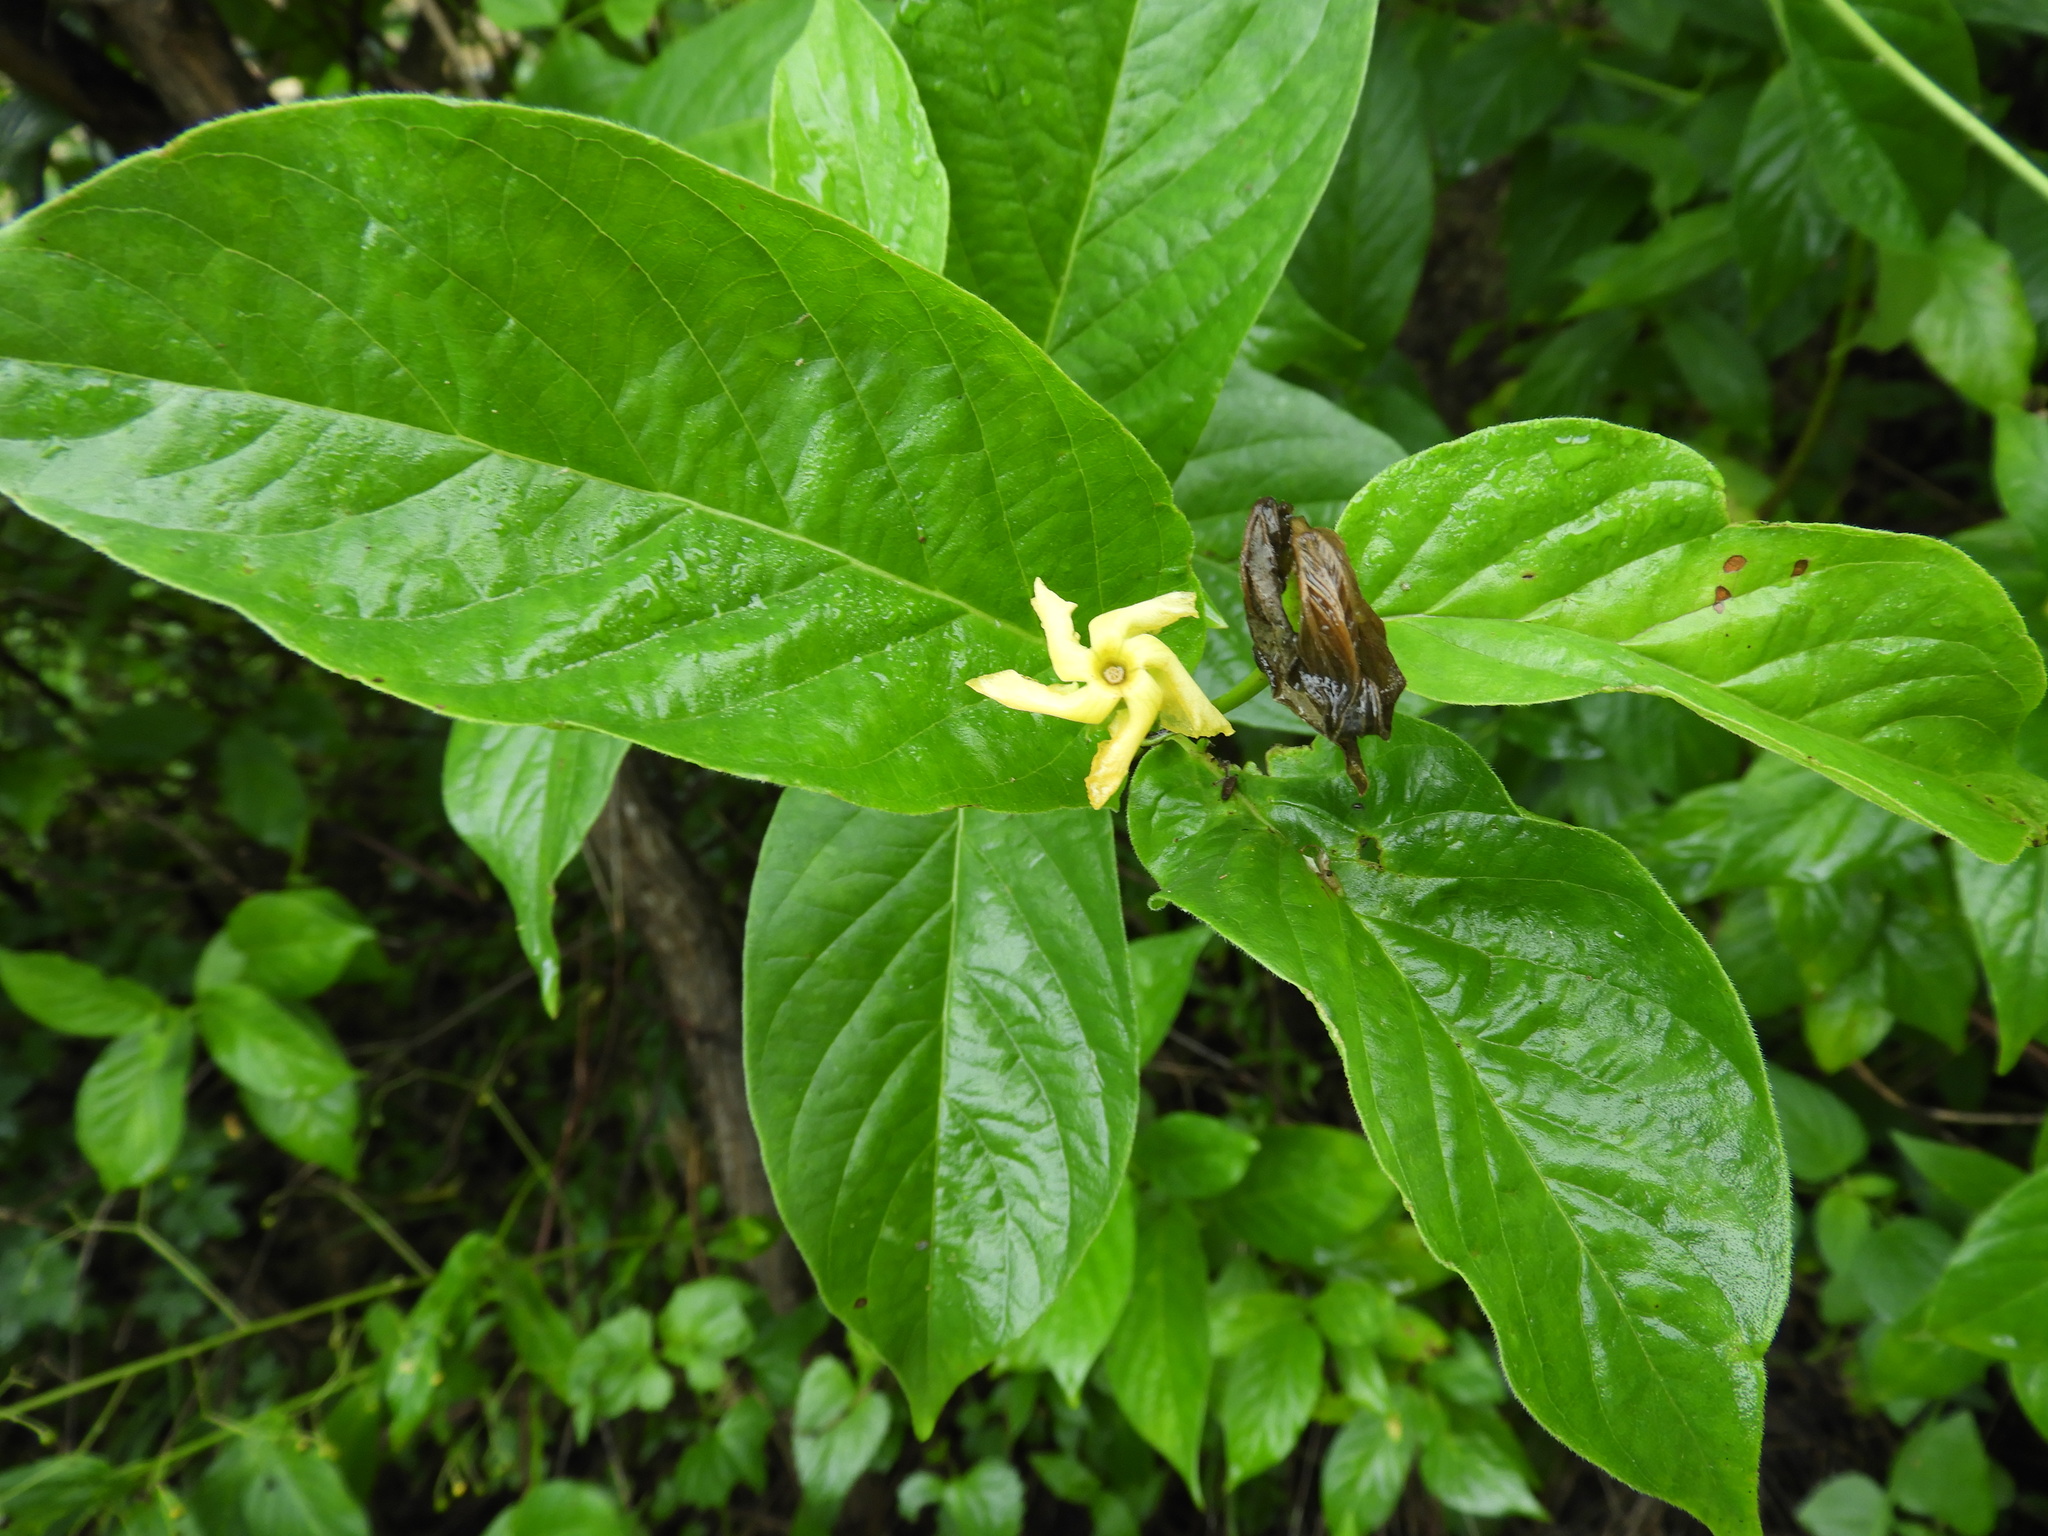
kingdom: Plantae
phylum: Tracheophyta
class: Magnoliopsida
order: Gentianales
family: Apocynaceae
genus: Mandevilla
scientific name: Mandevilla foliosa
